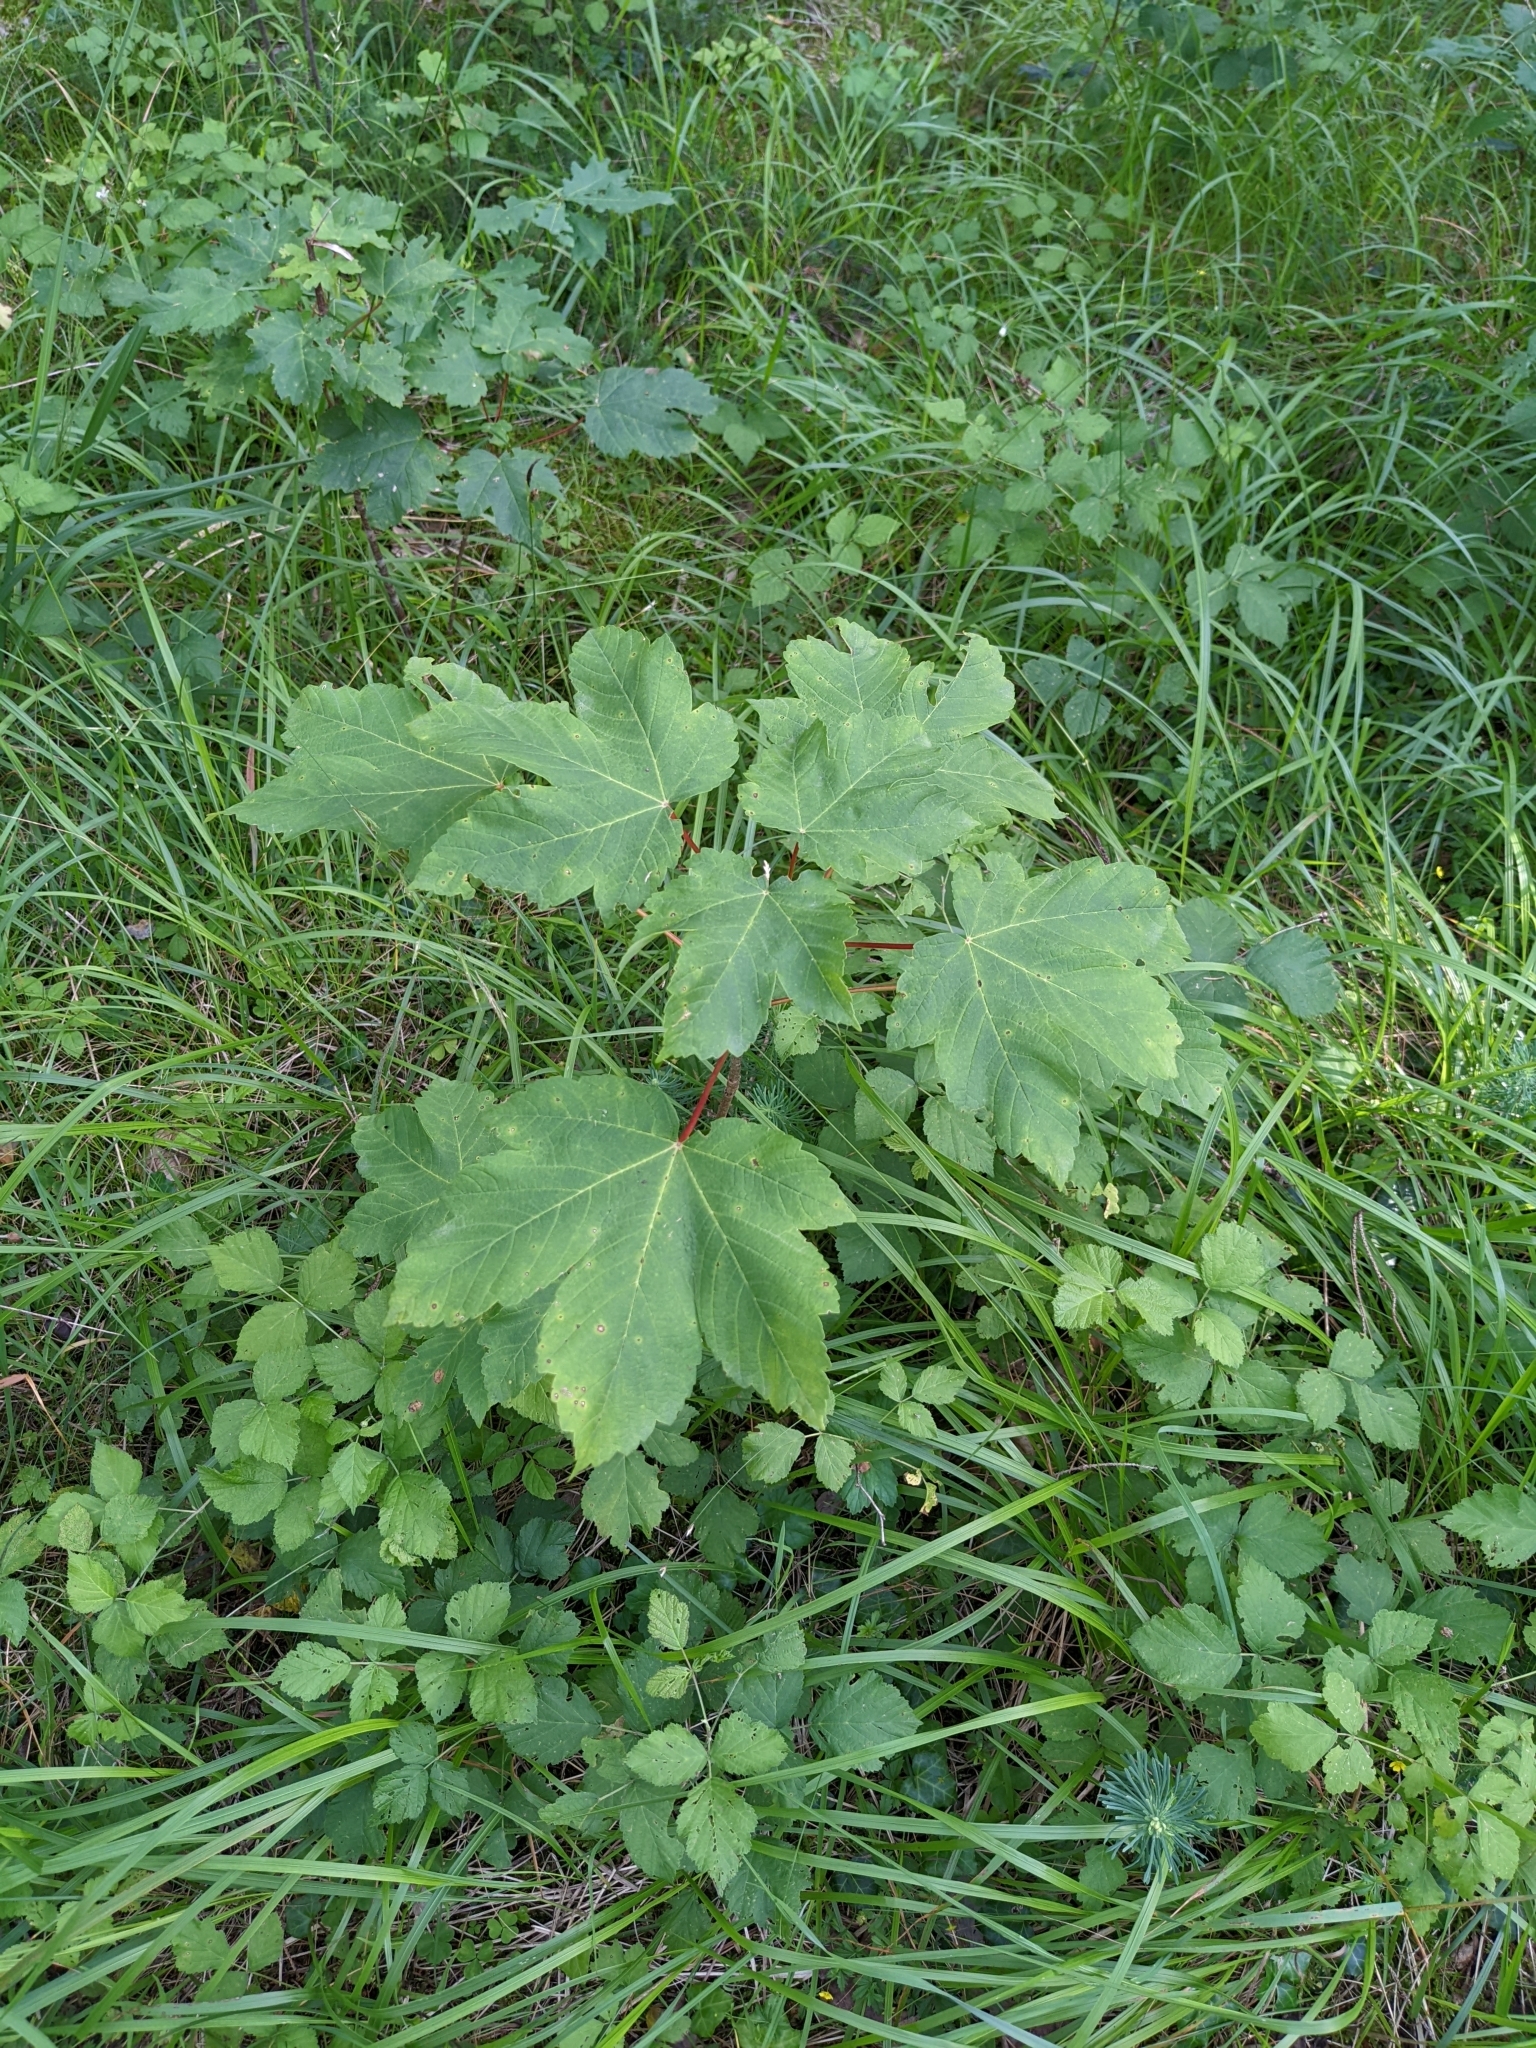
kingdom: Plantae
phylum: Tracheophyta
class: Magnoliopsida
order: Sapindales
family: Sapindaceae
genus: Acer
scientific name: Acer pseudoplatanus
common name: Sycamore
